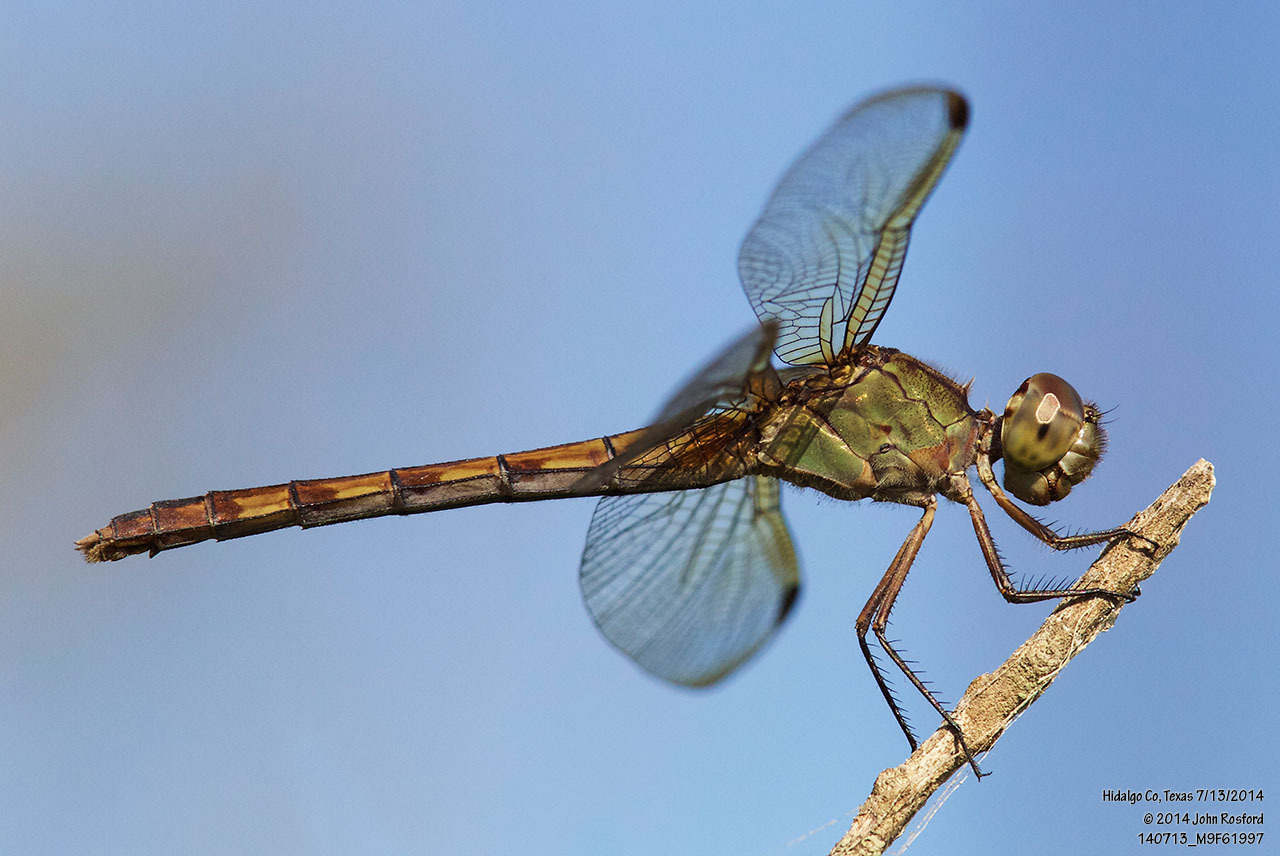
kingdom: Animalia
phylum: Arthropoda
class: Insecta
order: Odonata
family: Libellulidae
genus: Erythrodiplax
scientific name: Erythrodiplax umbrata
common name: Band-winged dragonlet
